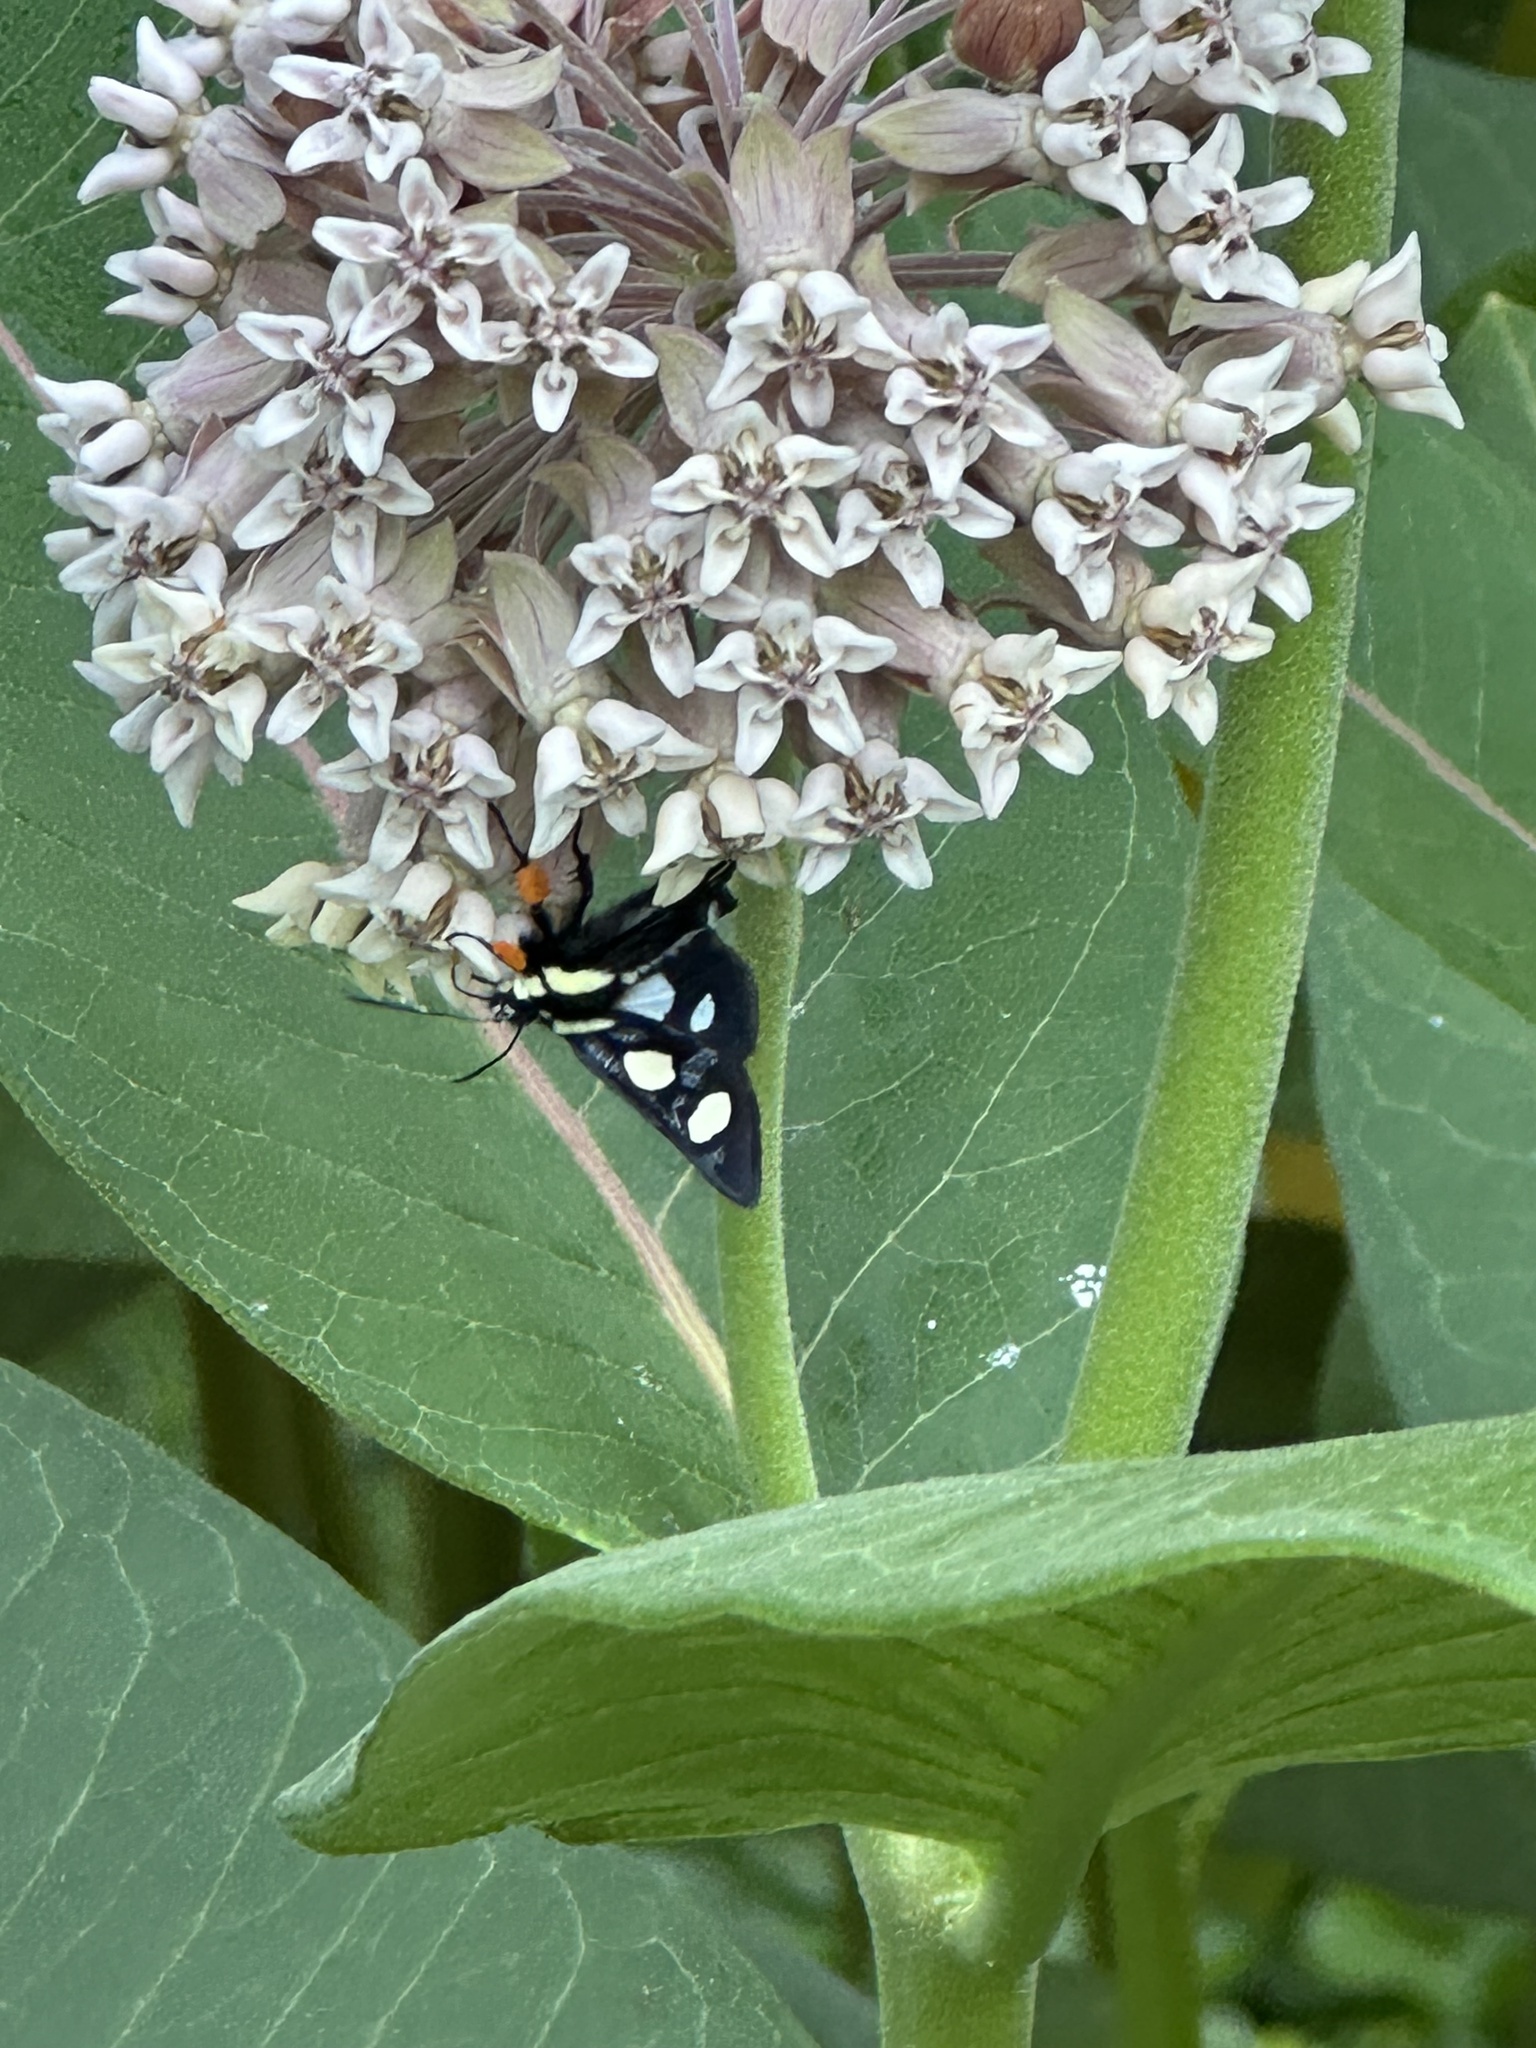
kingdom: Animalia
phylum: Arthropoda
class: Insecta
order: Lepidoptera
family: Noctuidae
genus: Alypia
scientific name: Alypia octomaculata
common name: Eight-spotted forester
